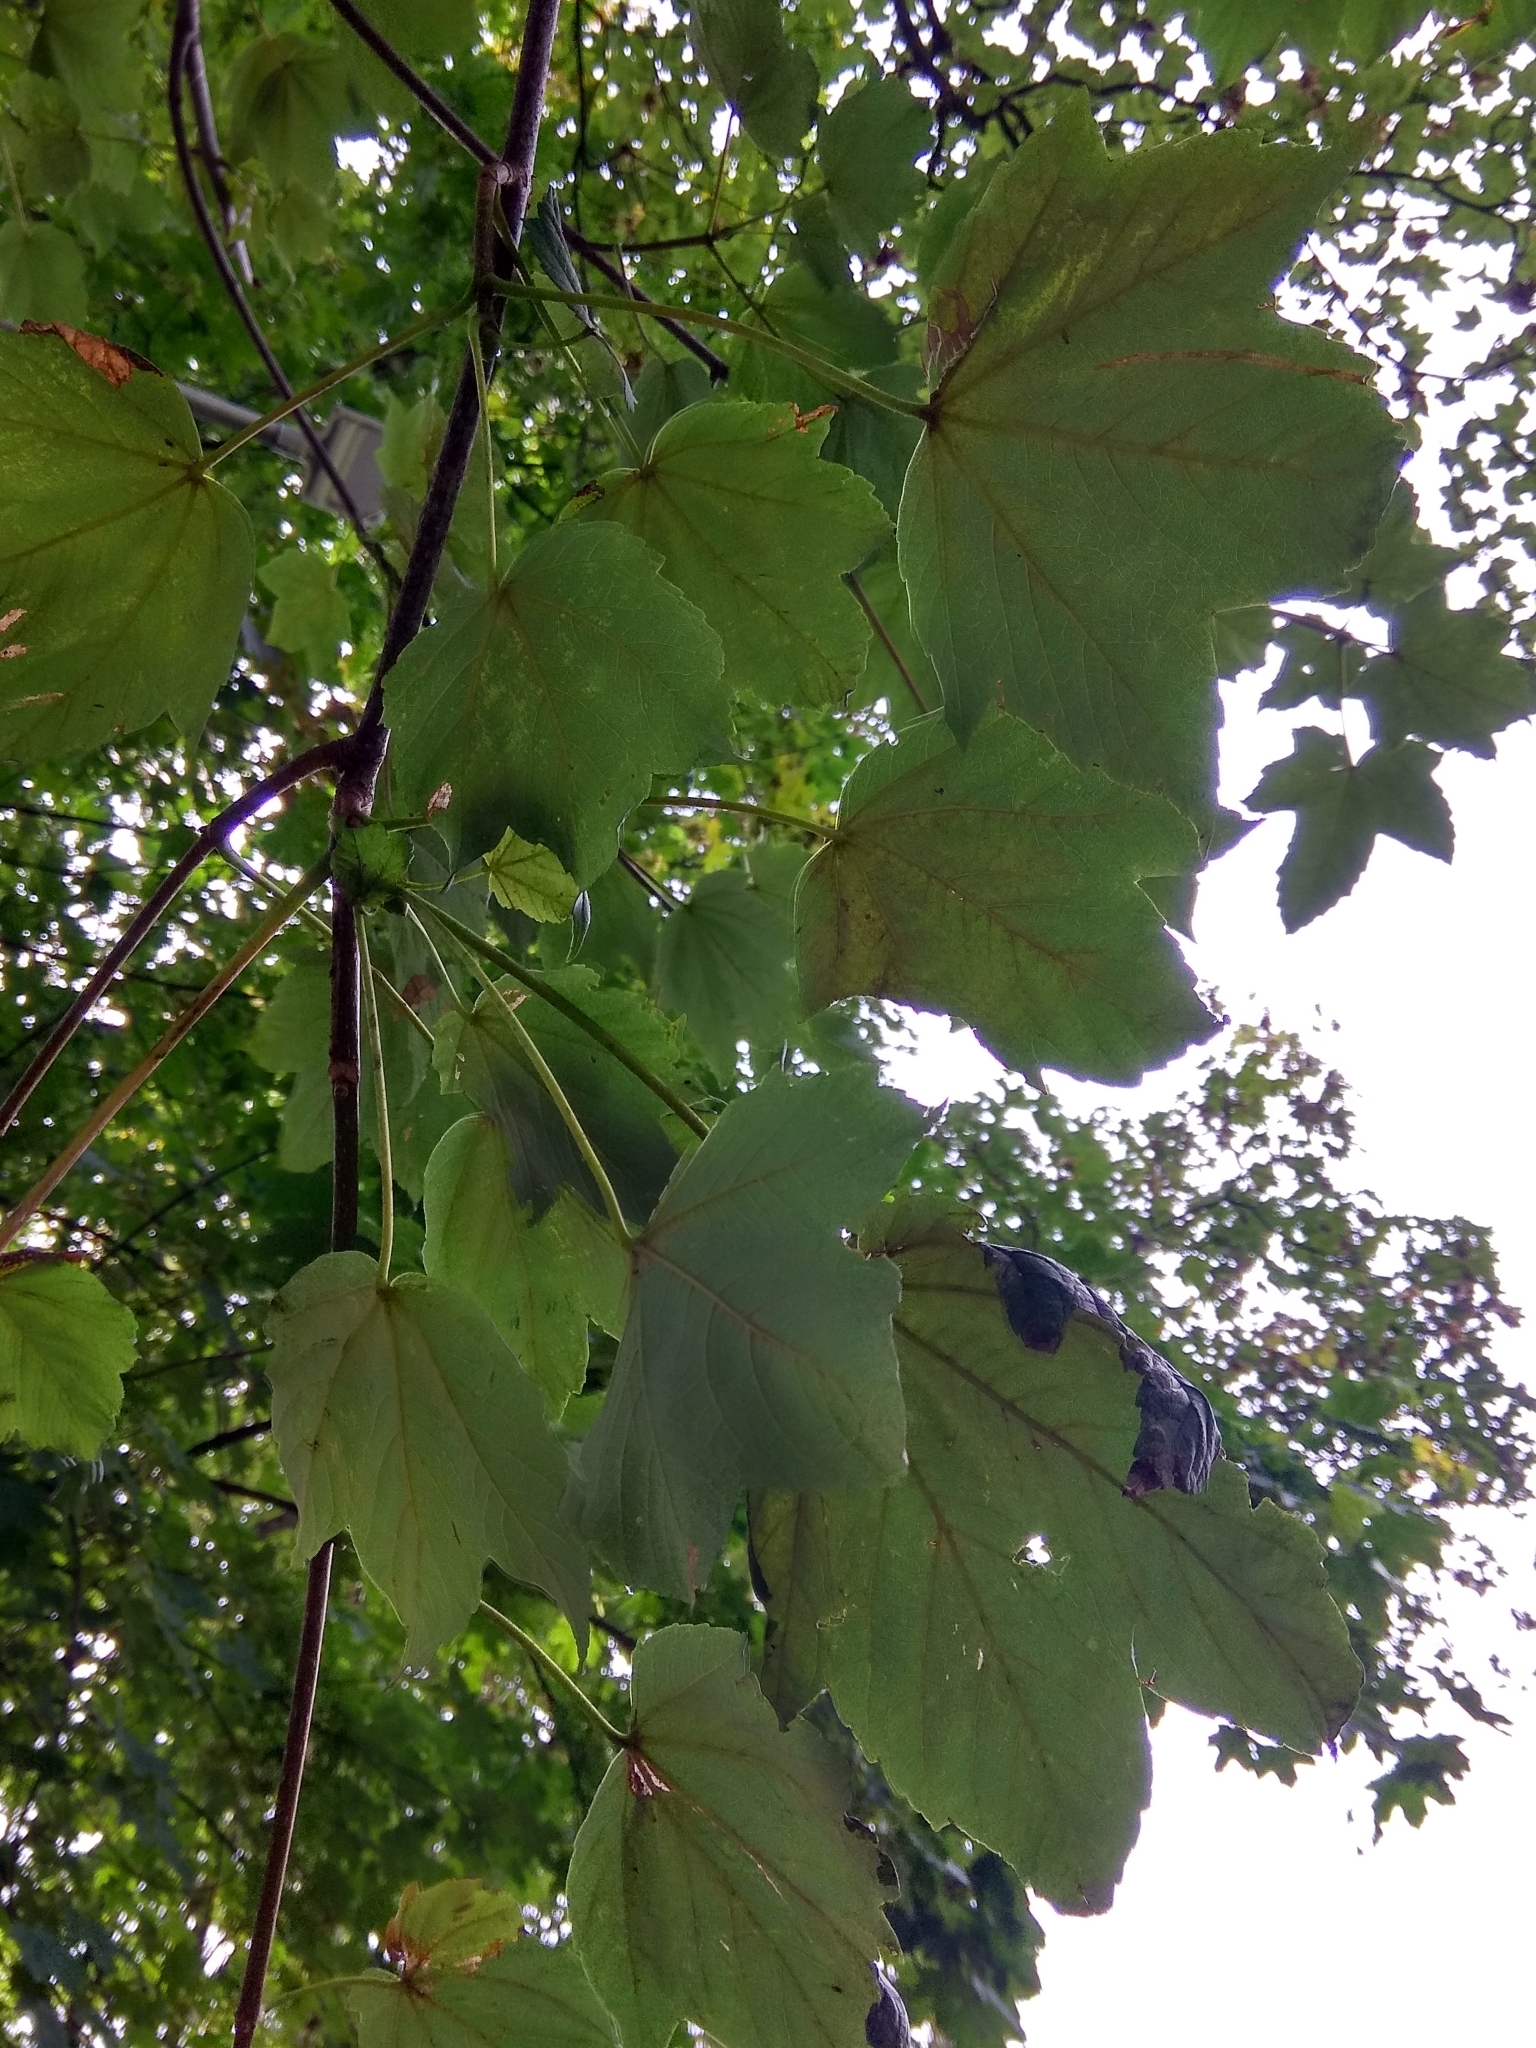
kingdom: Plantae
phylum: Tracheophyta
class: Magnoliopsida
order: Sapindales
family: Sapindaceae
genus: Acer
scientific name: Acer pseudoplatanus
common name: Sycamore
